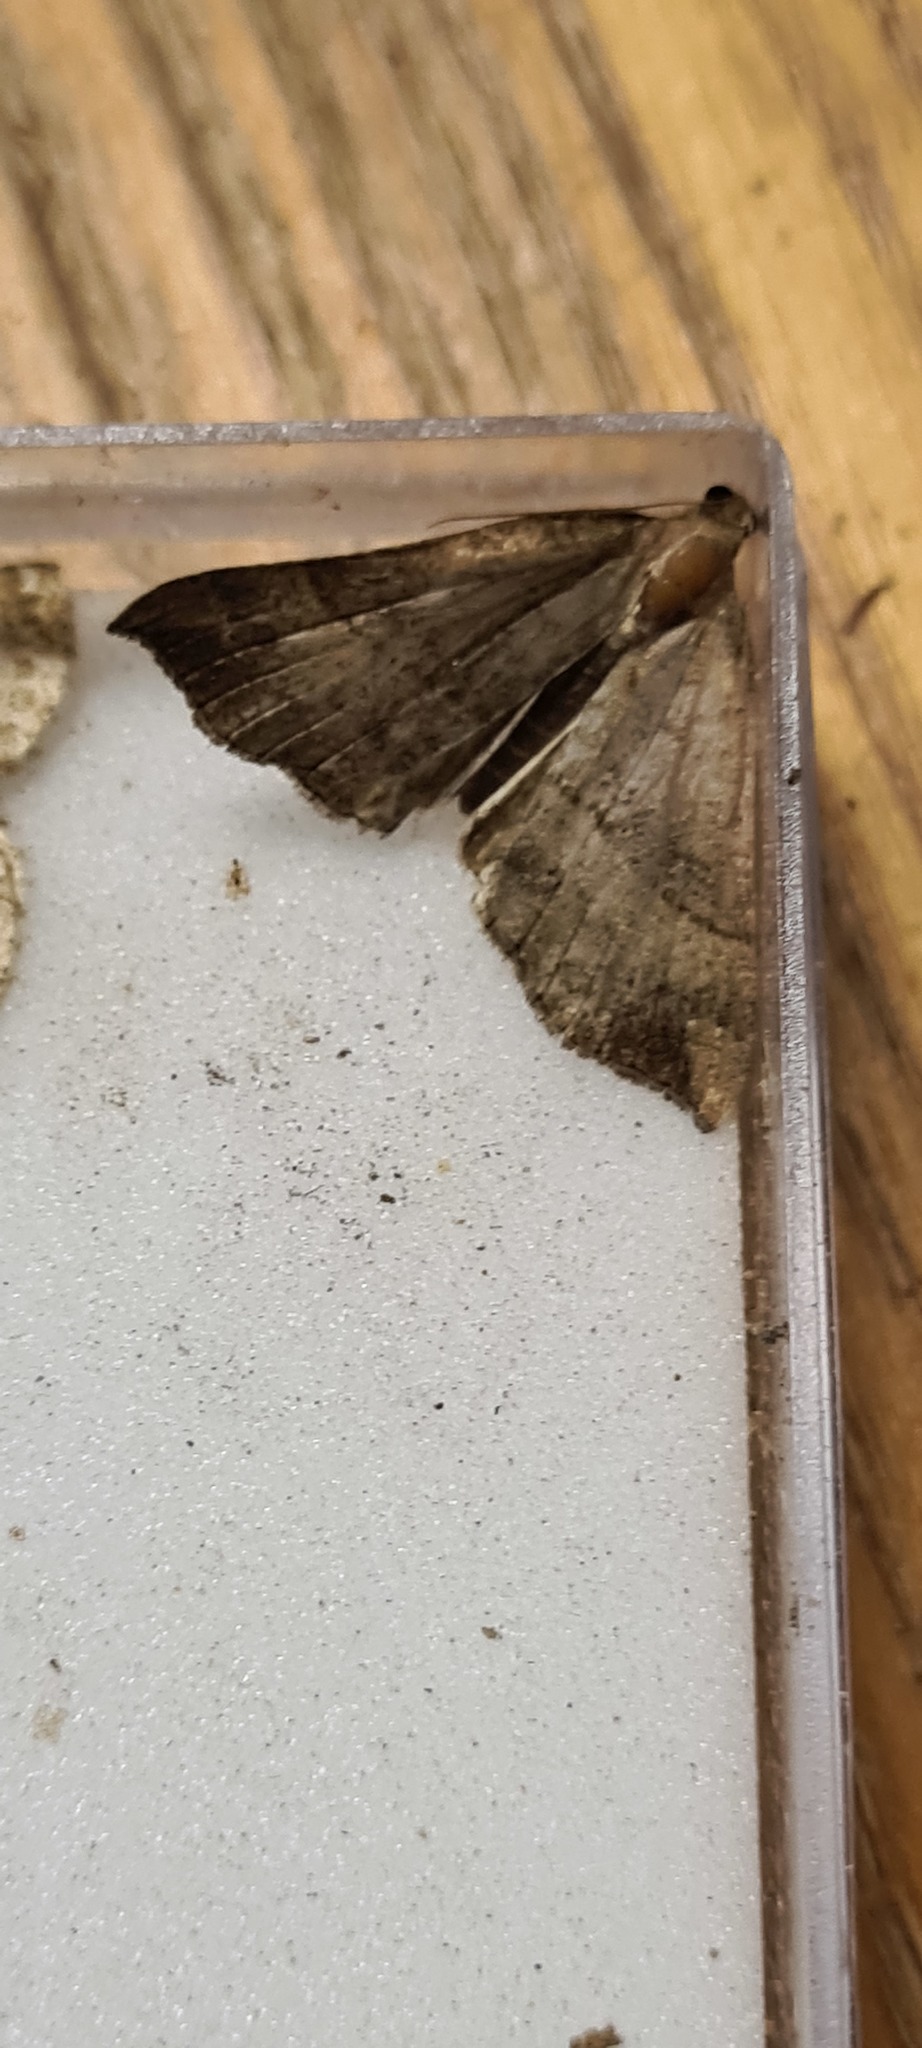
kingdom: Animalia
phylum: Arthropoda
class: Insecta
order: Lepidoptera
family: Erebidae
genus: Hypena
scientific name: Hypena proboscidalis
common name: Snout
